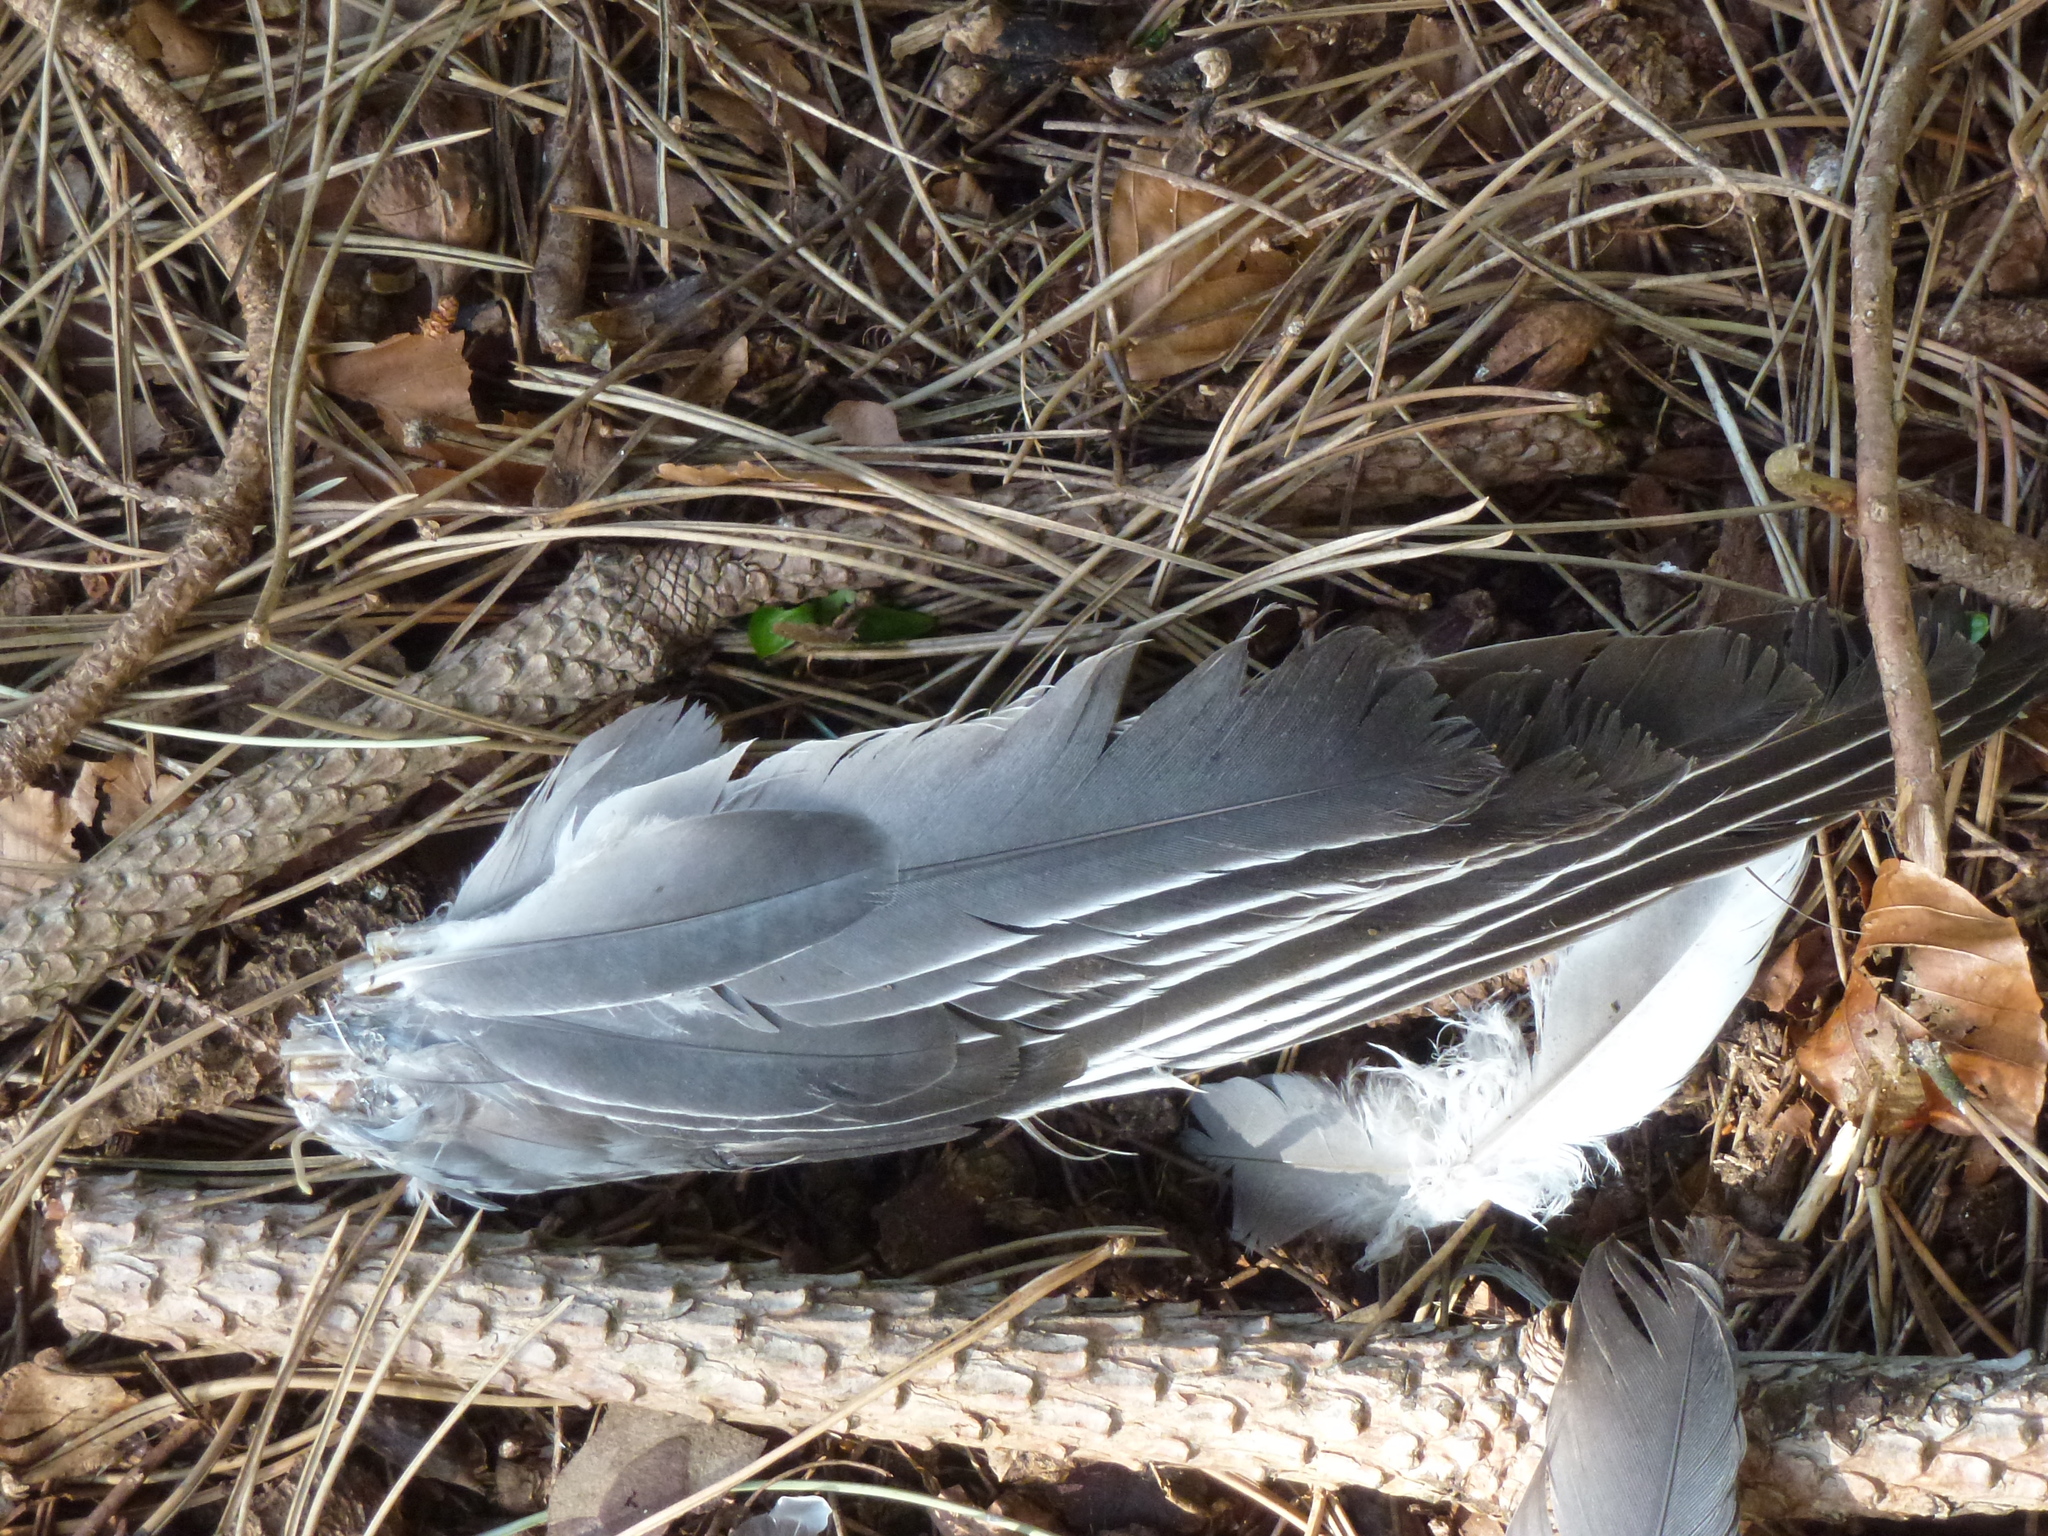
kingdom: Animalia
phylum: Chordata
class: Aves
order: Columbiformes
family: Columbidae
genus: Columba
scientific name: Columba palumbus
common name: Common wood pigeon
